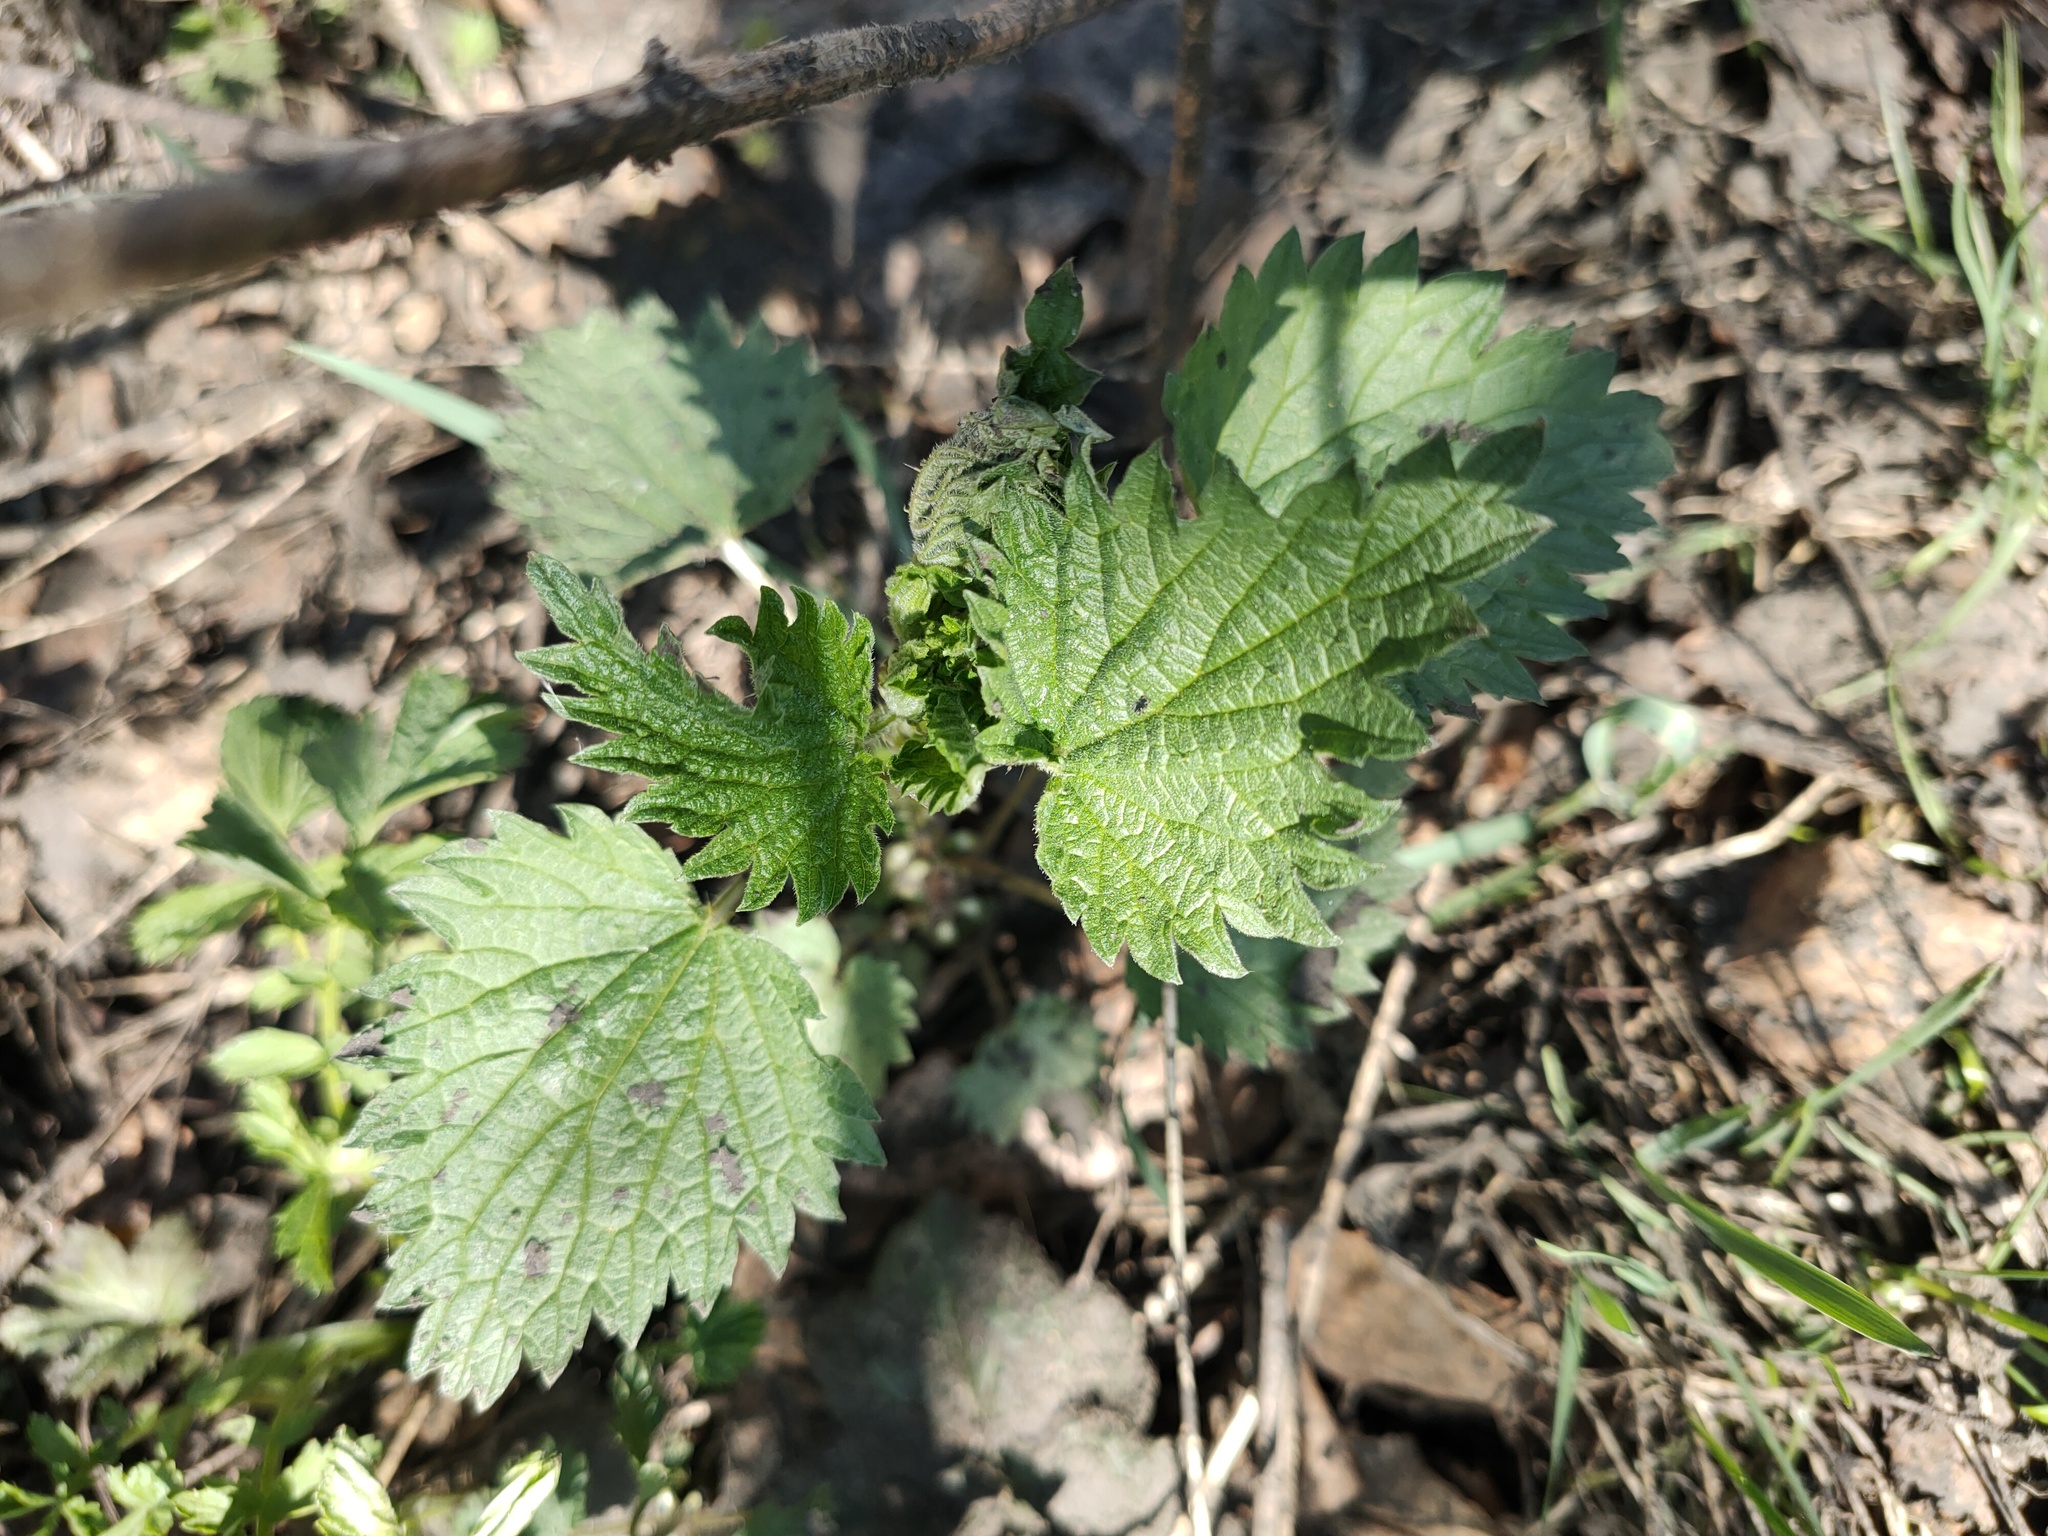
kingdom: Plantae
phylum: Tracheophyta
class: Magnoliopsida
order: Rosales
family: Urticaceae
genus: Urtica
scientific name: Urtica dioica
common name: Common nettle
